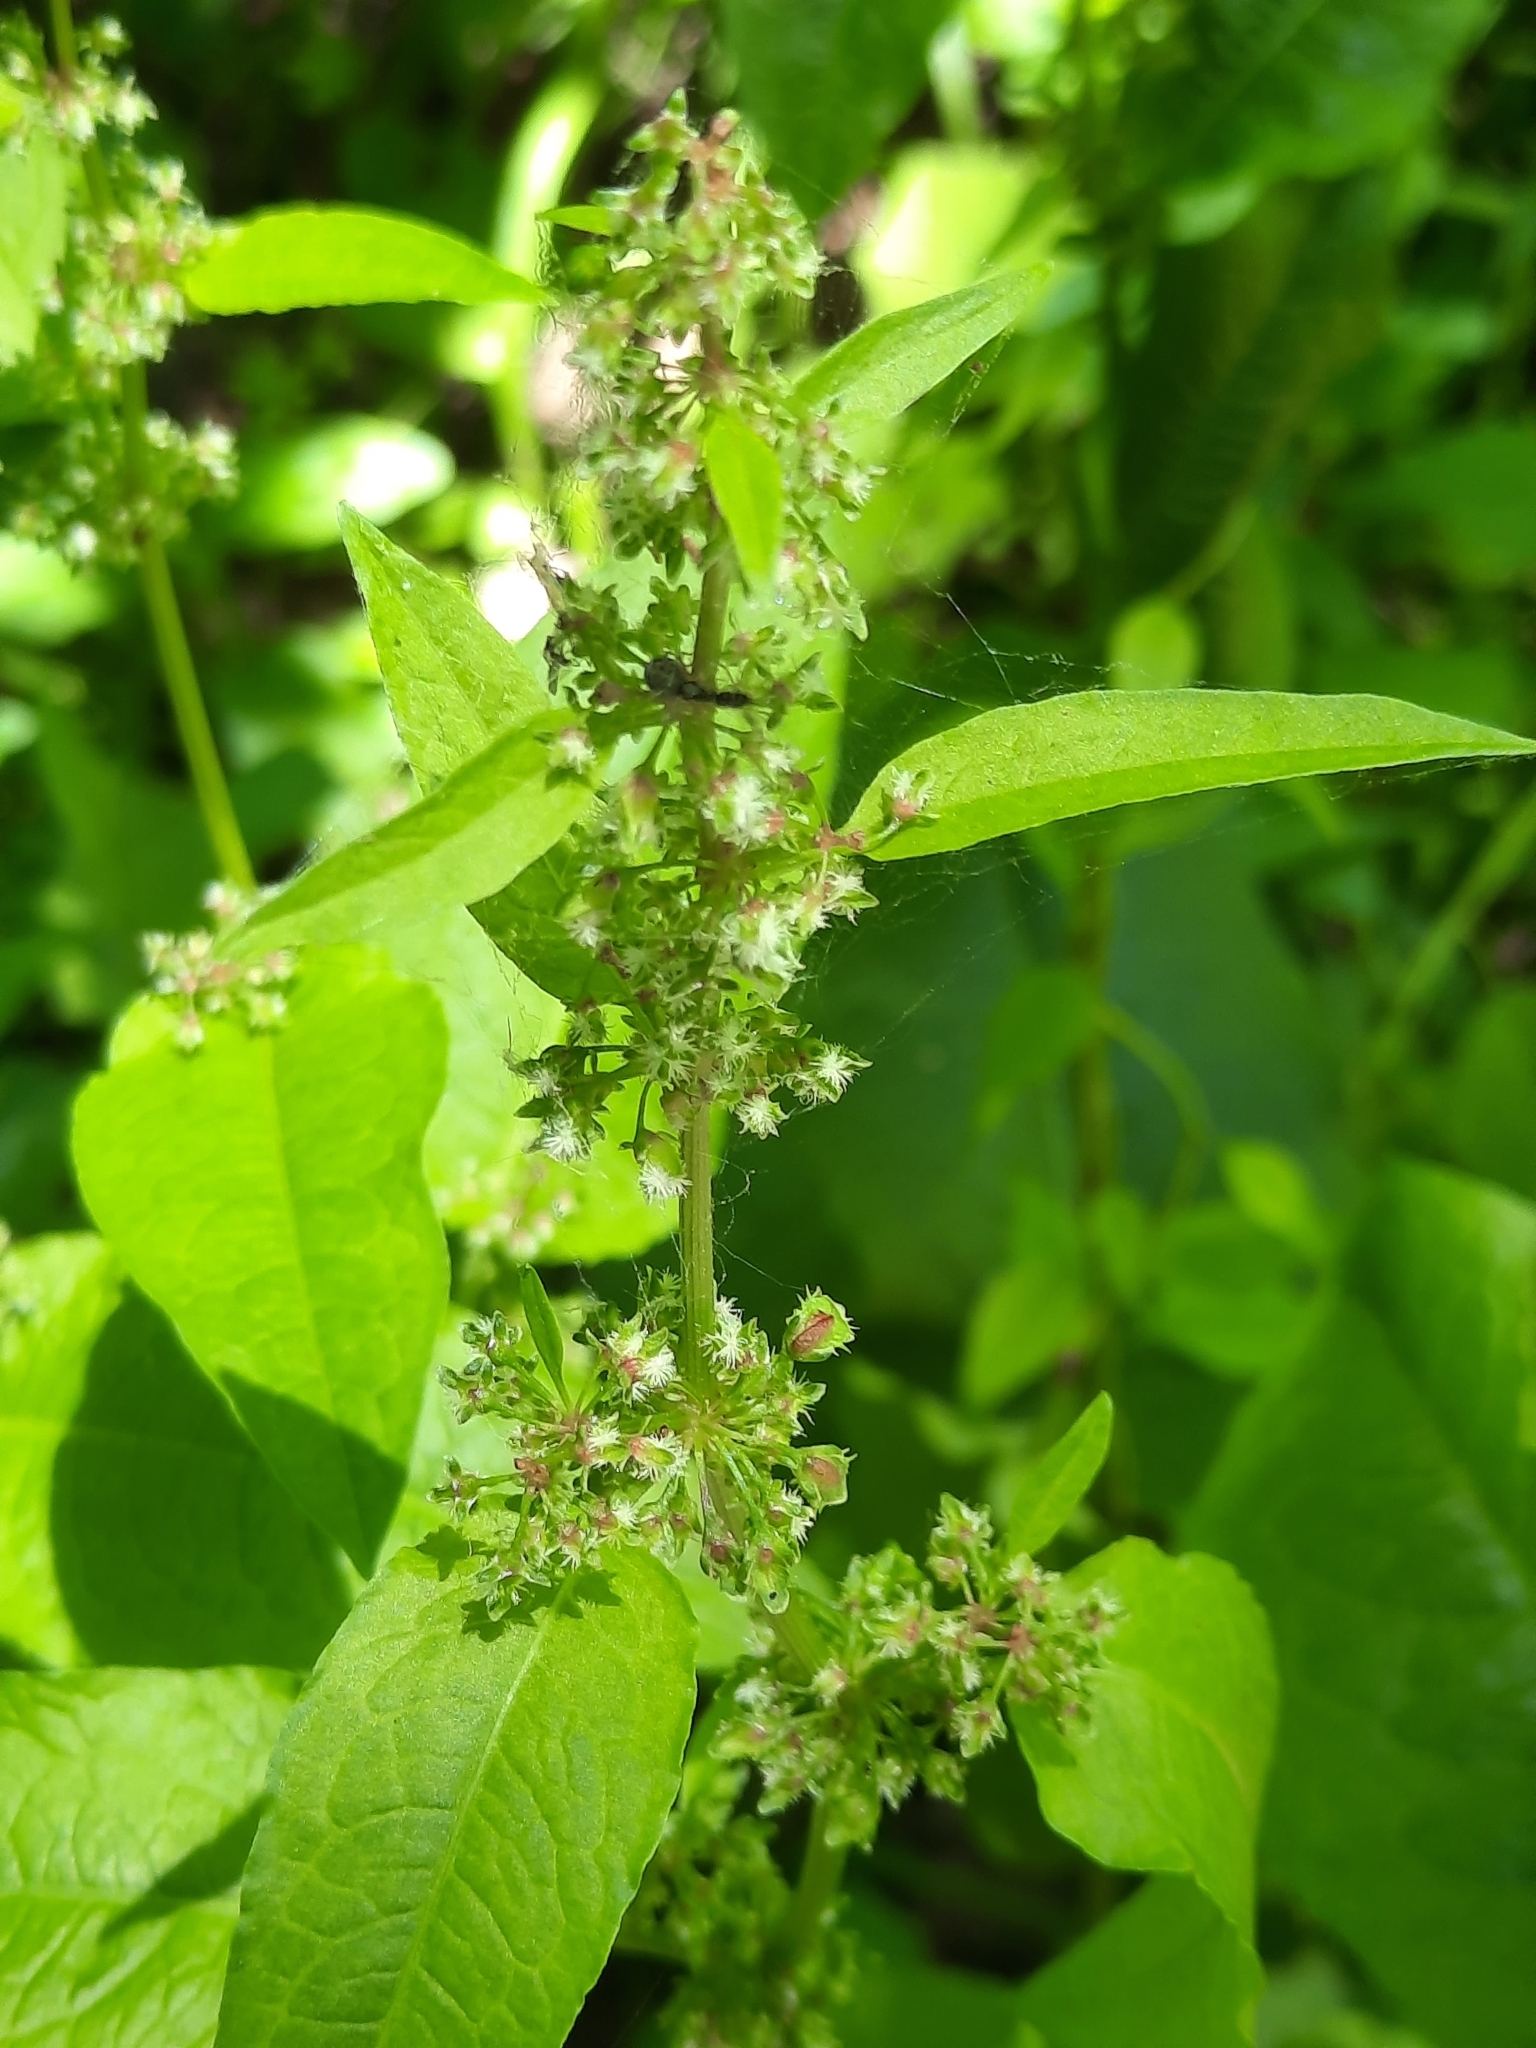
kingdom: Plantae
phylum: Tracheophyta
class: Magnoliopsida
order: Caryophyllales
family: Polygonaceae
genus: Rumex
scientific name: Rumex obtusifolius
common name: Bitter dock
